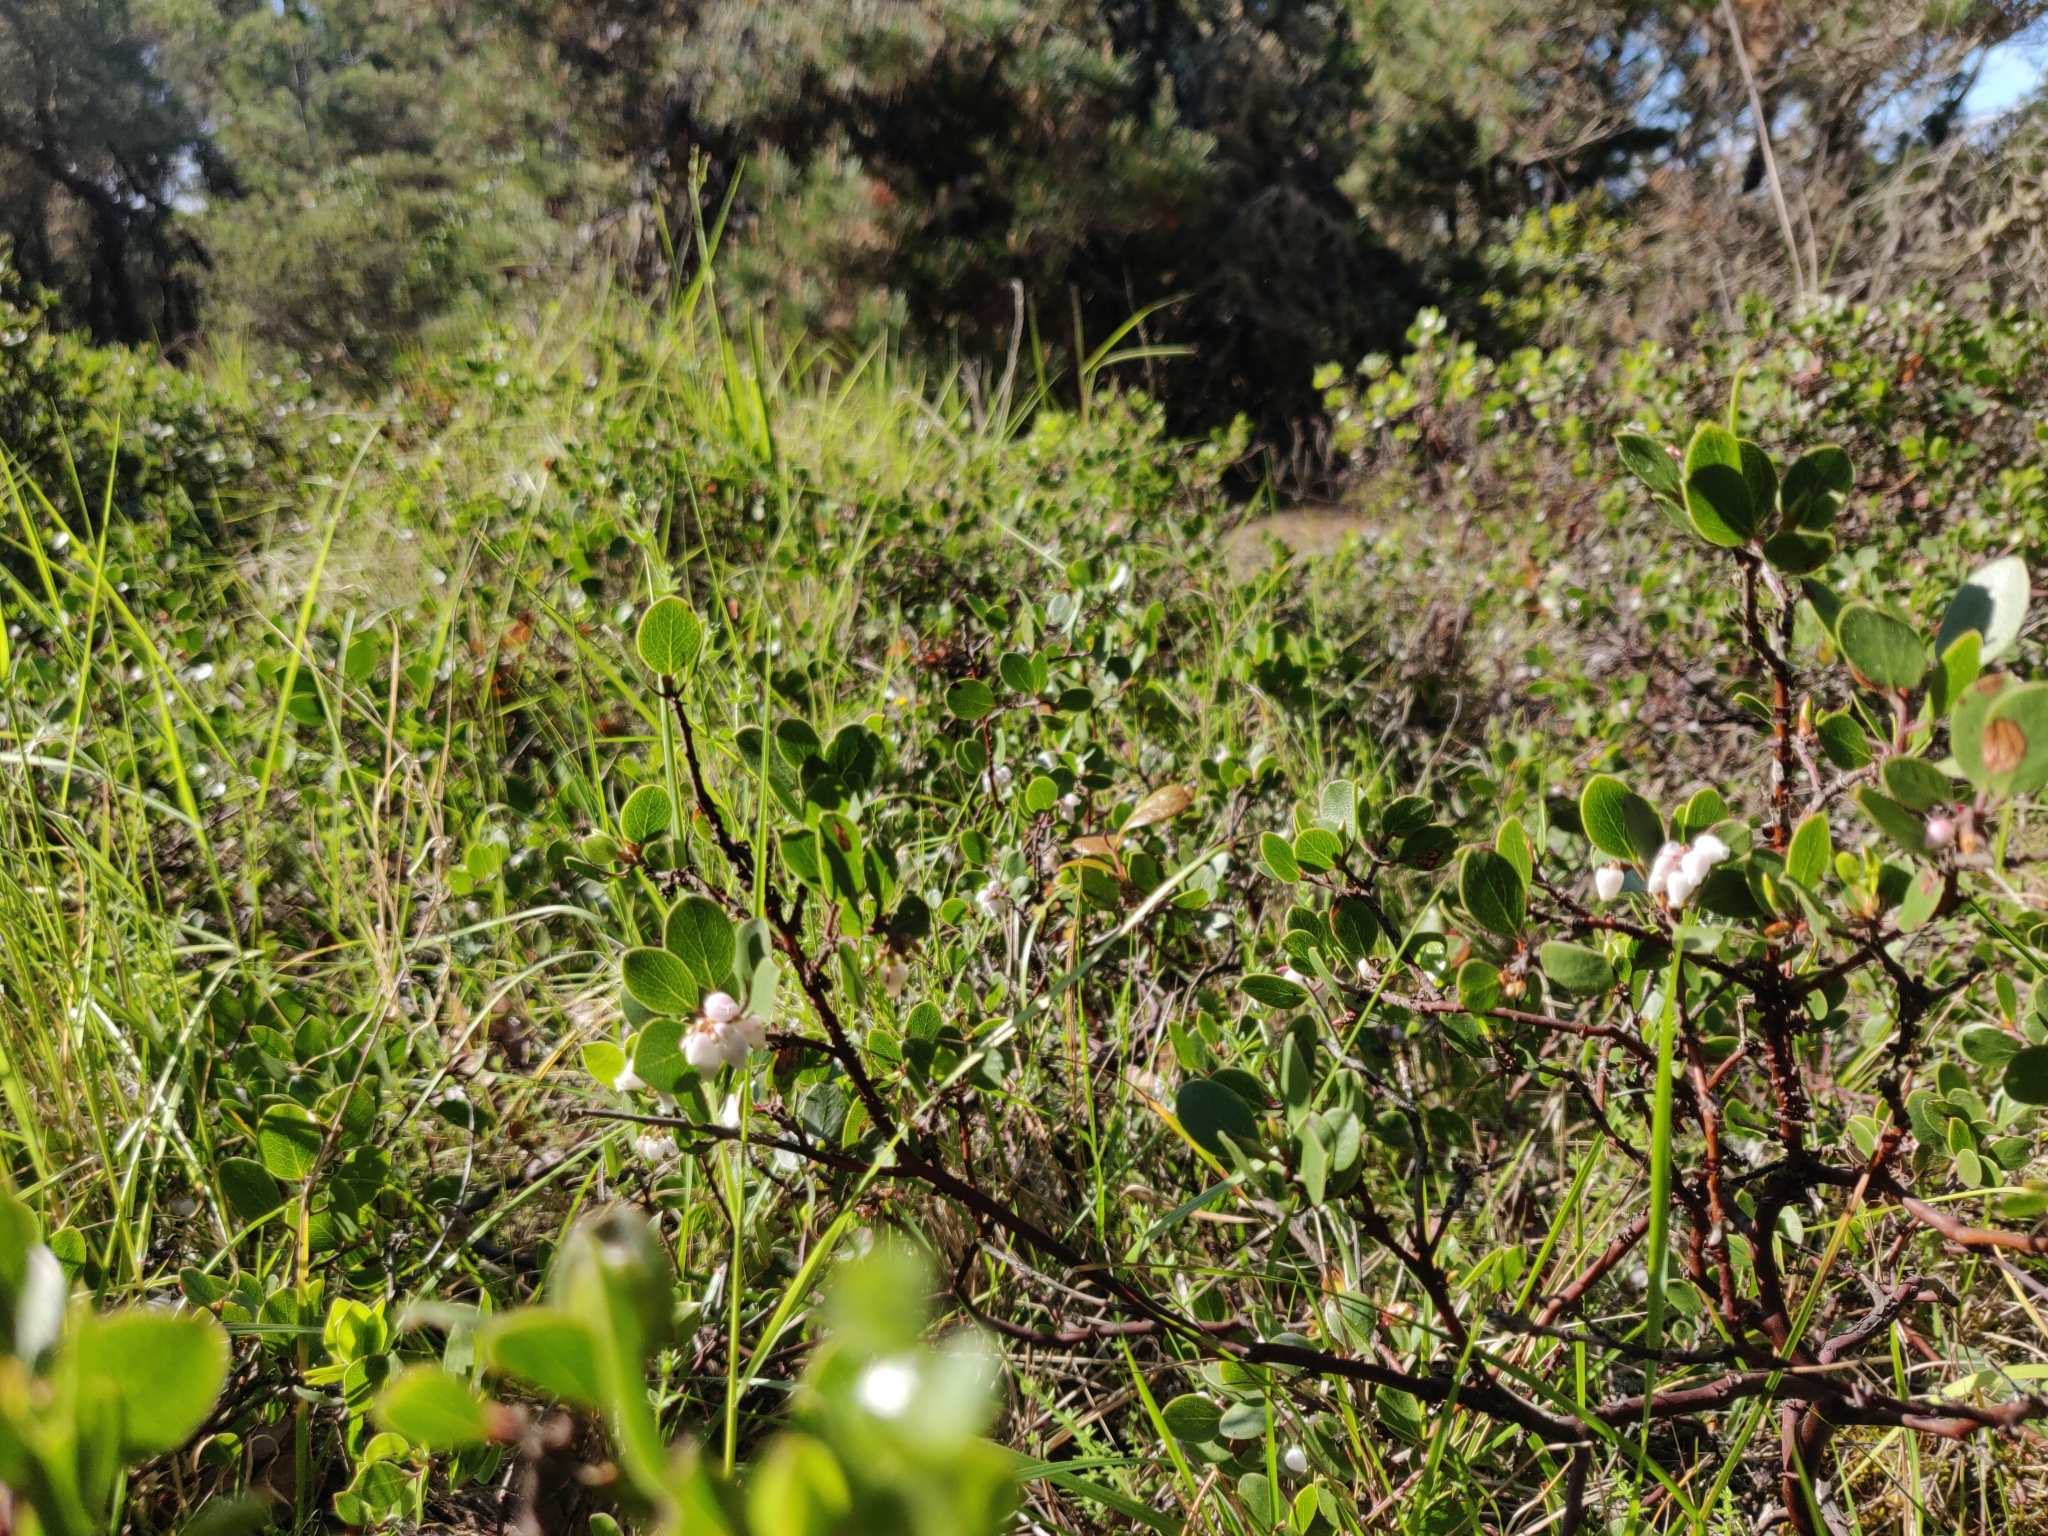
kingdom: Plantae
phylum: Tracheophyta
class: Magnoliopsida
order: Ericales
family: Ericaceae
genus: Arctostaphylos
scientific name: Arctostaphylos hookeri
